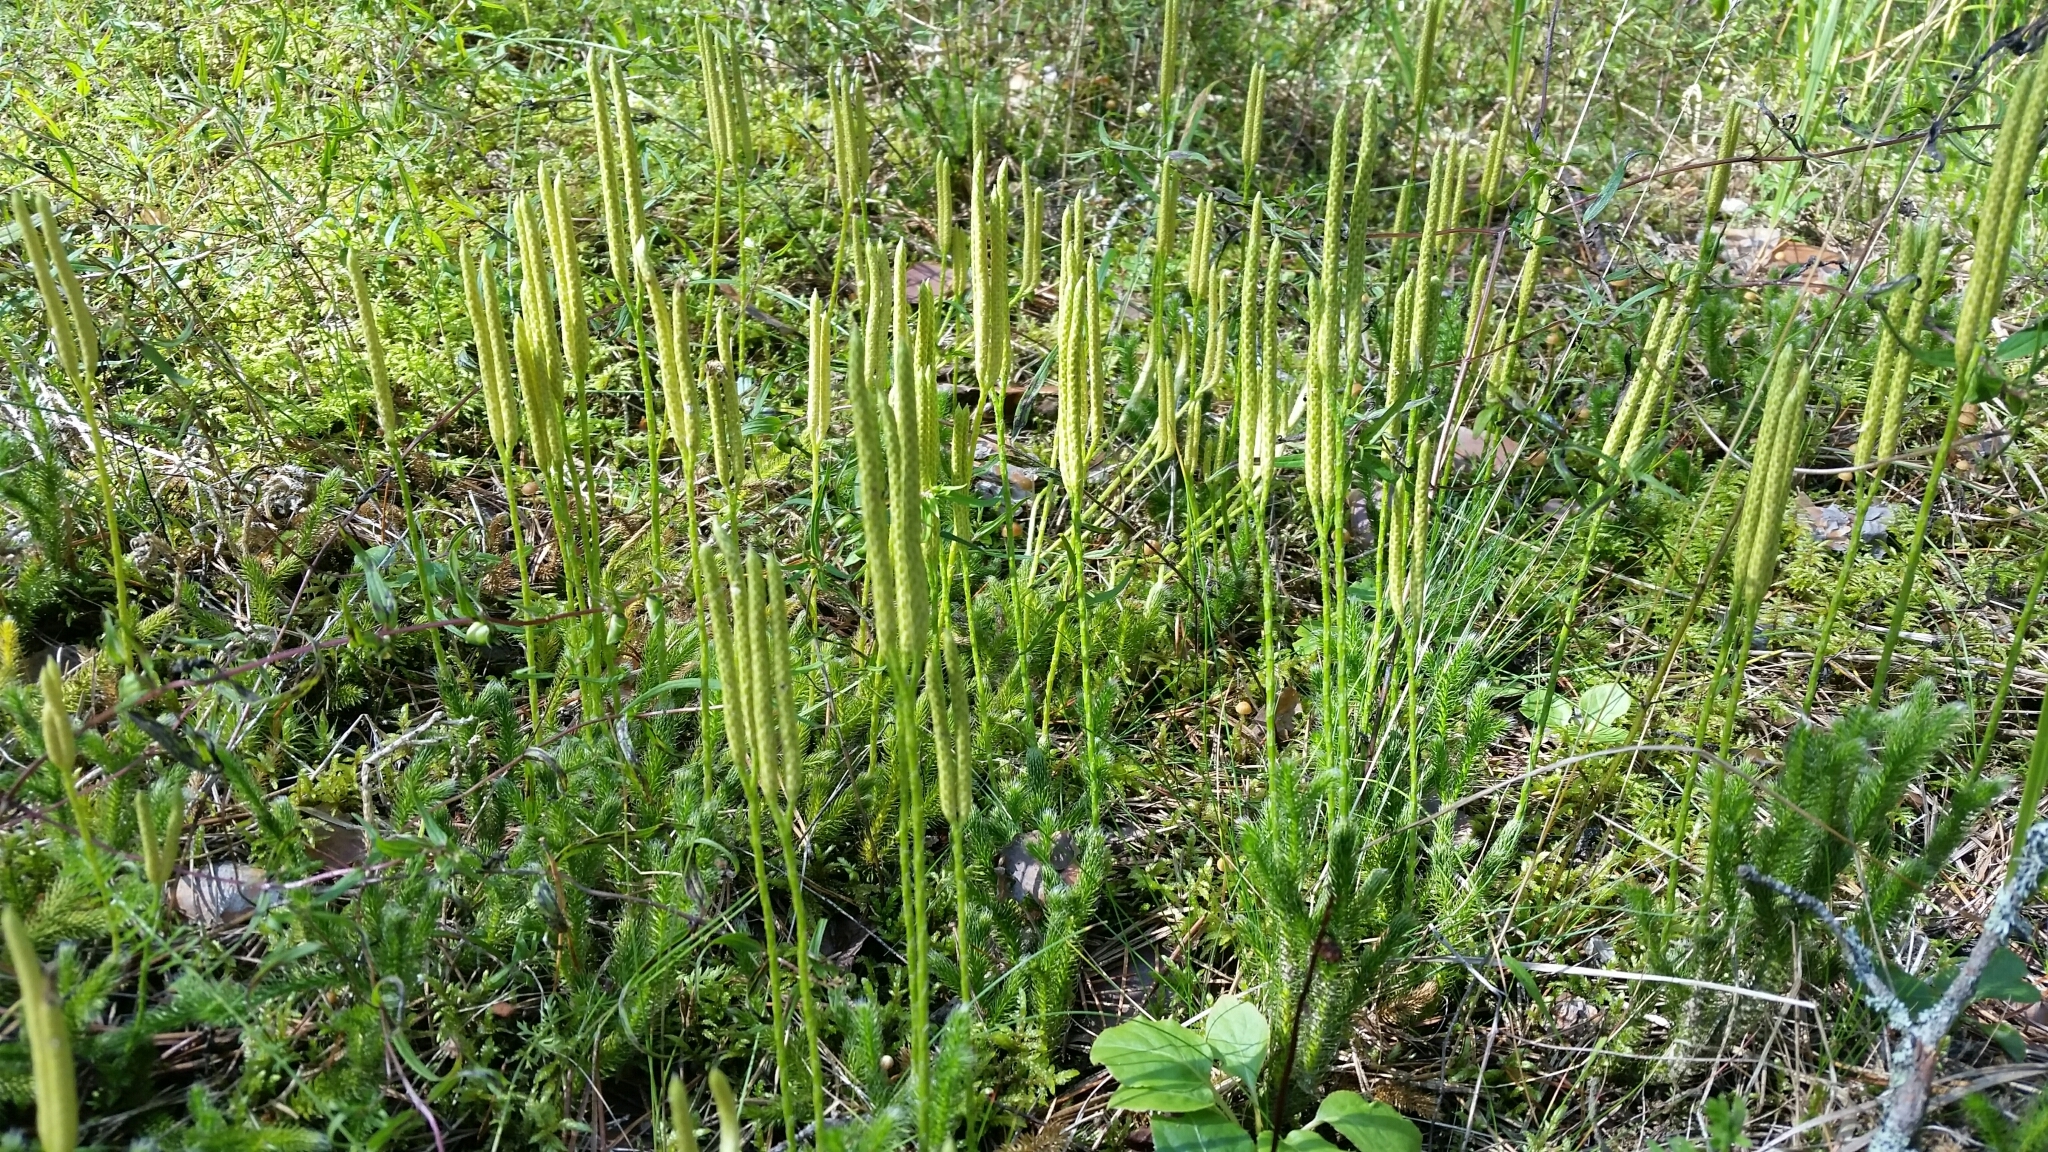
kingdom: Plantae
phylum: Tracheophyta
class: Lycopodiopsida
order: Lycopodiales
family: Lycopodiaceae
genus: Lycopodium
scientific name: Lycopodium clavatum
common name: Stag's-horn clubmoss
